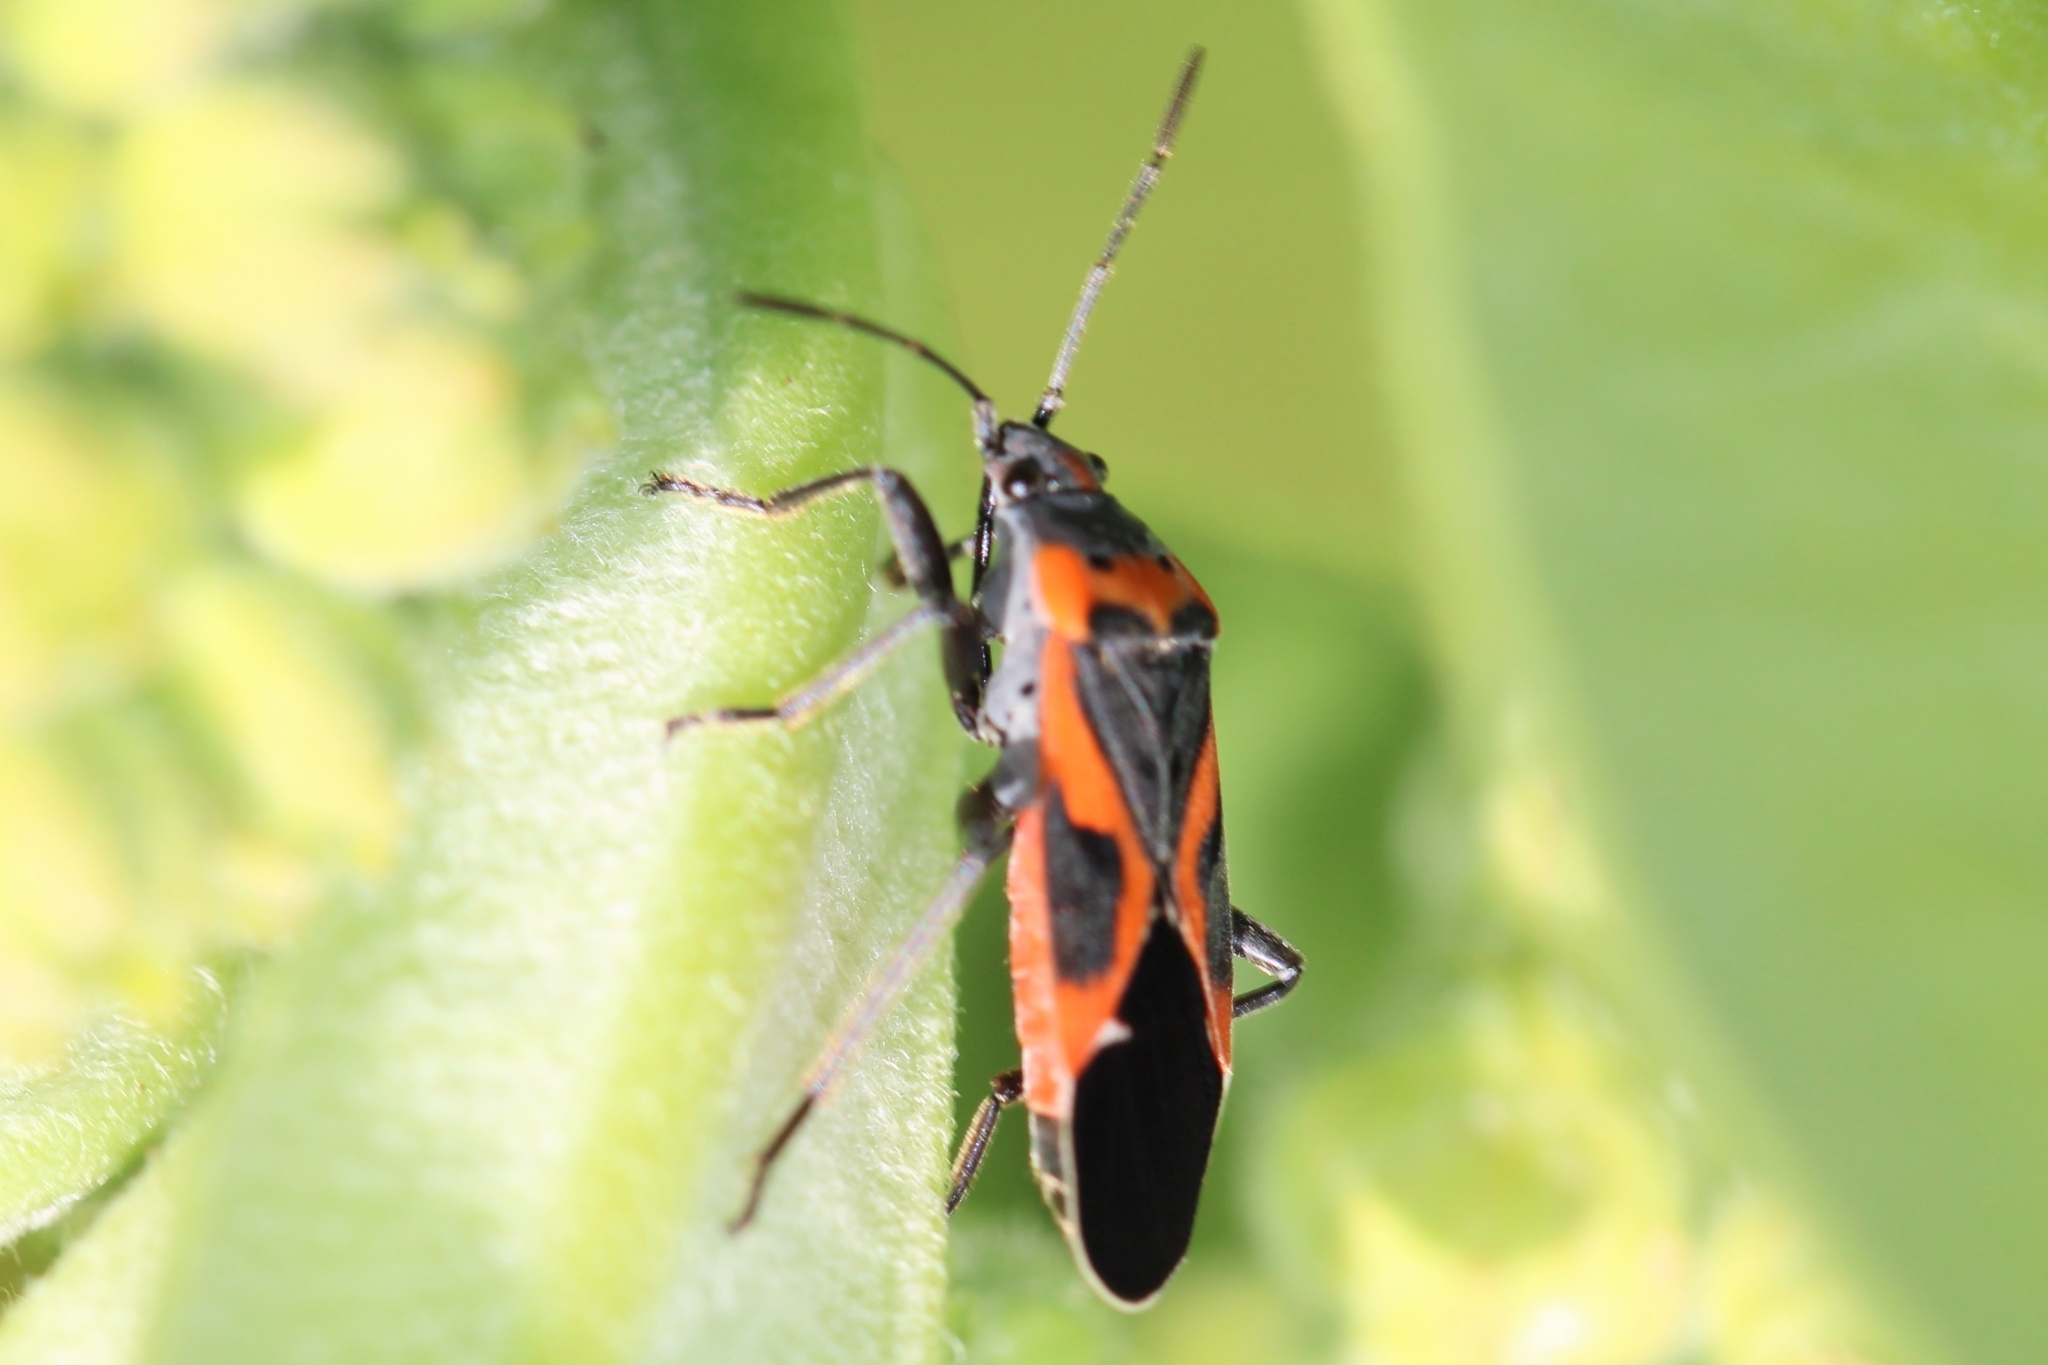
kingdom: Animalia
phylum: Arthropoda
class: Insecta
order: Hemiptera
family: Lygaeidae
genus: Lygaeus
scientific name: Lygaeus kalmii
